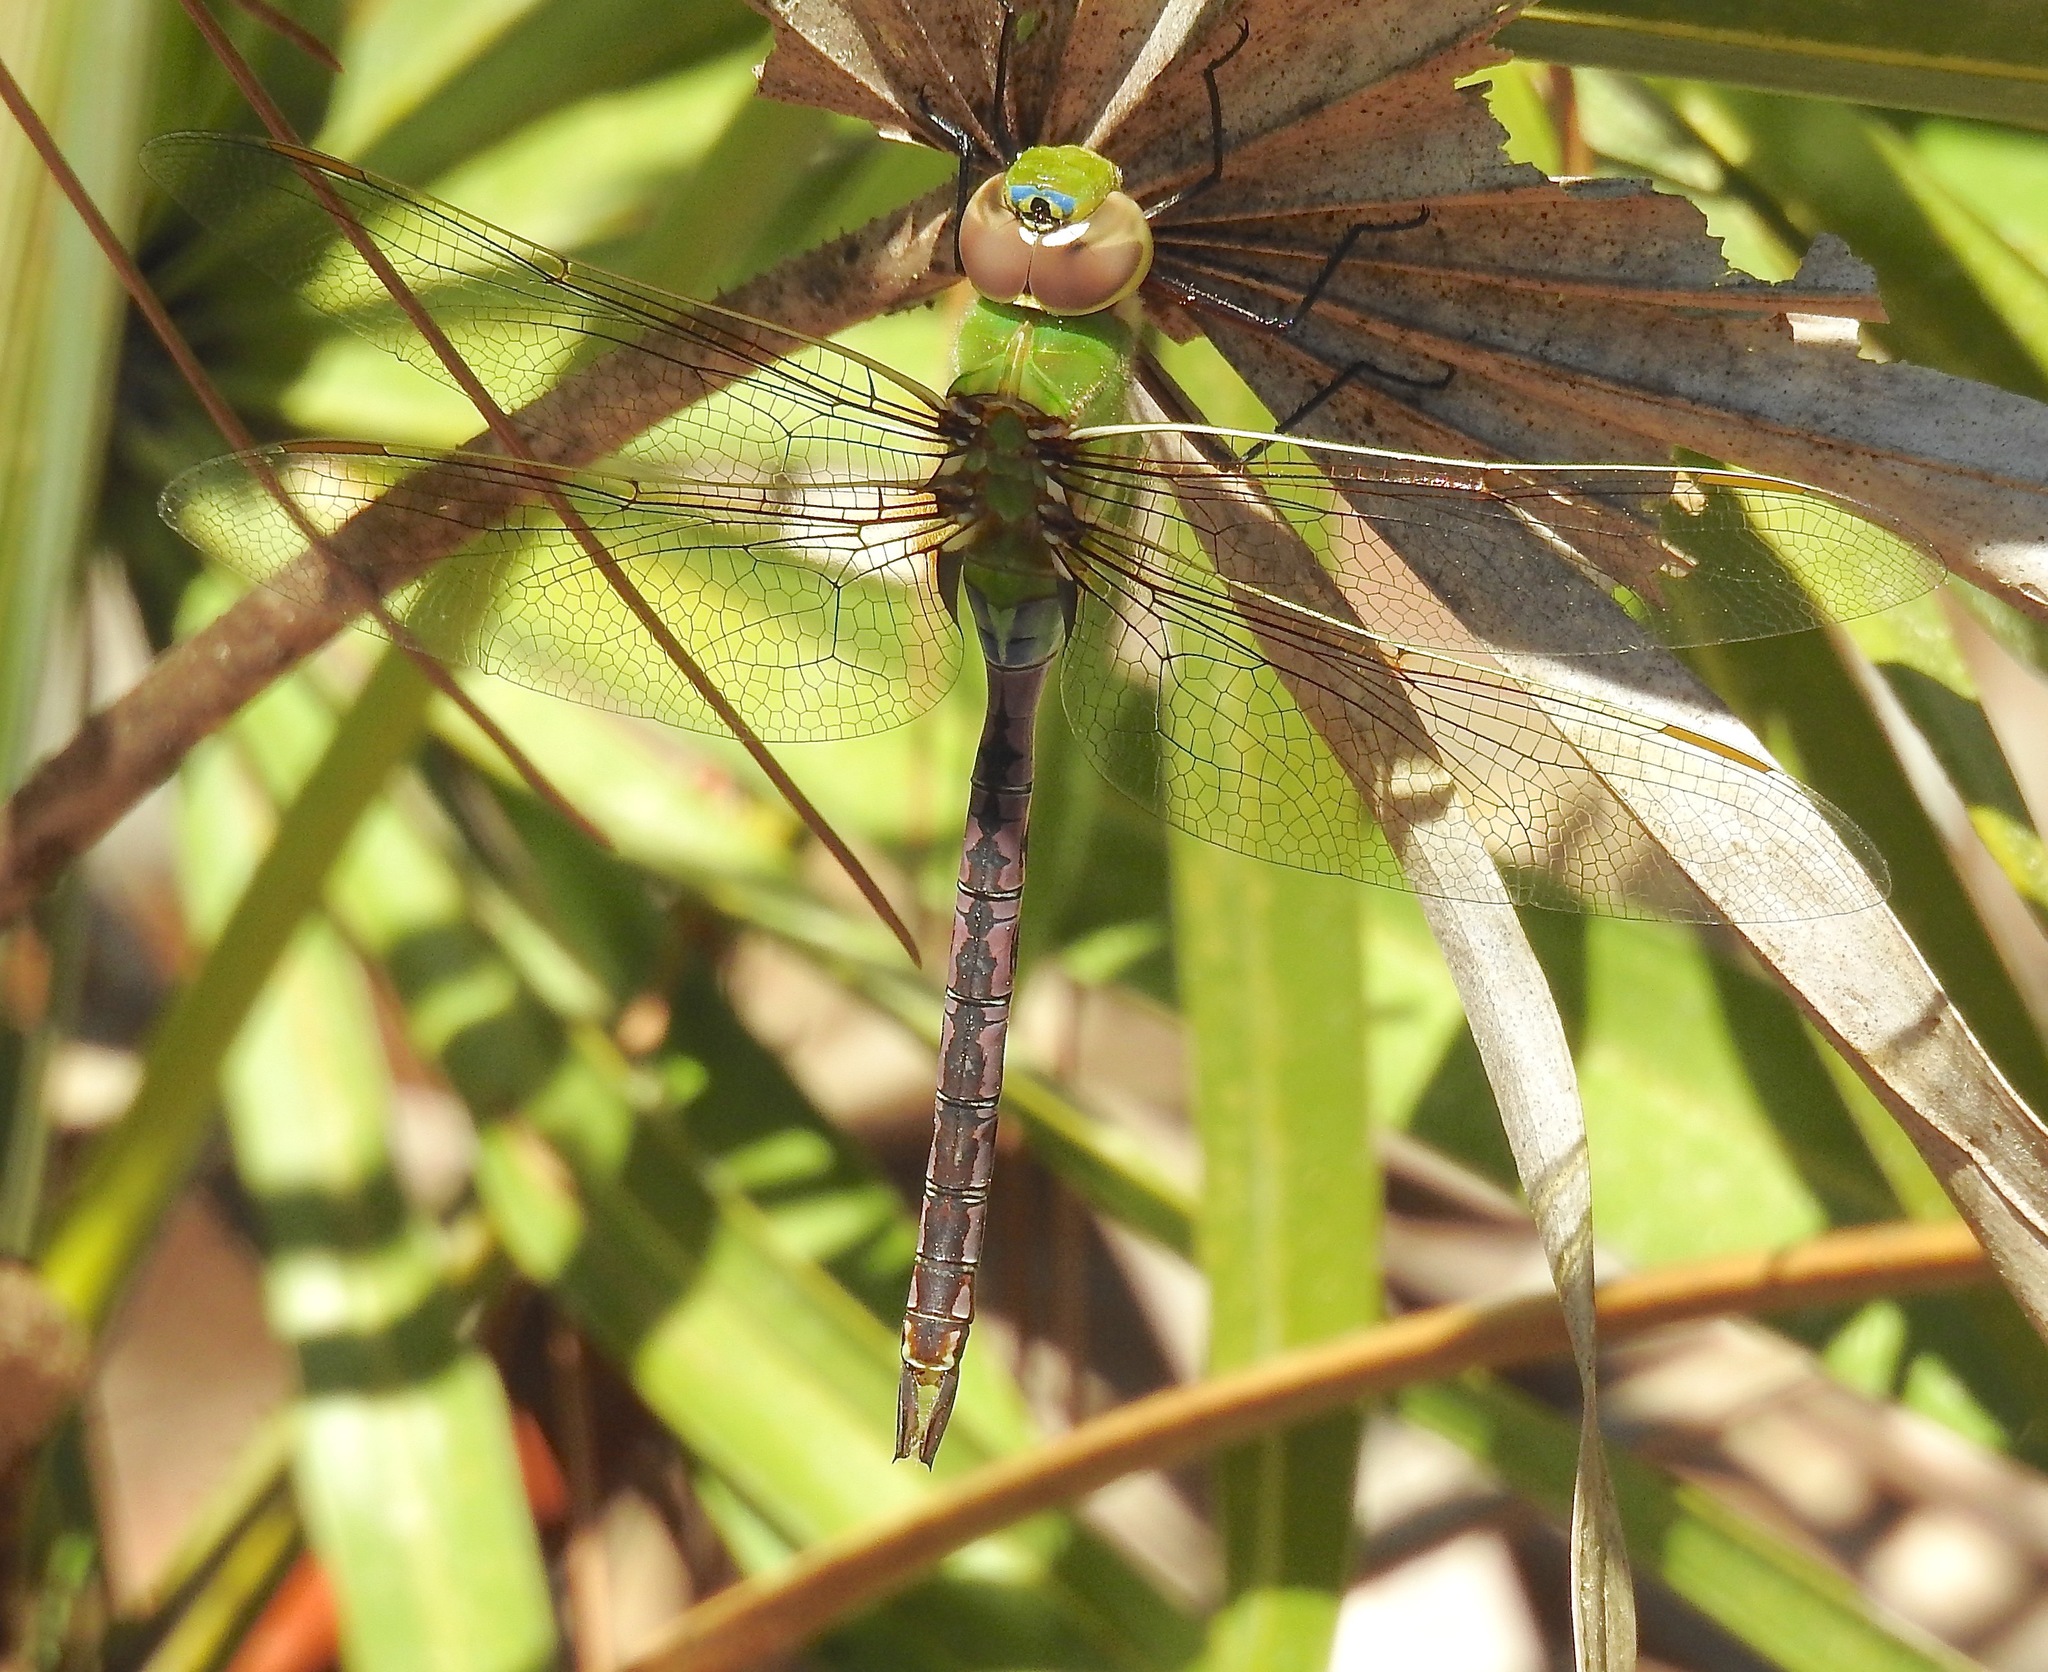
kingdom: Animalia
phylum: Arthropoda
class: Insecta
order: Odonata
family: Aeshnidae
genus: Anax
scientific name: Anax junius
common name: Common green darner
